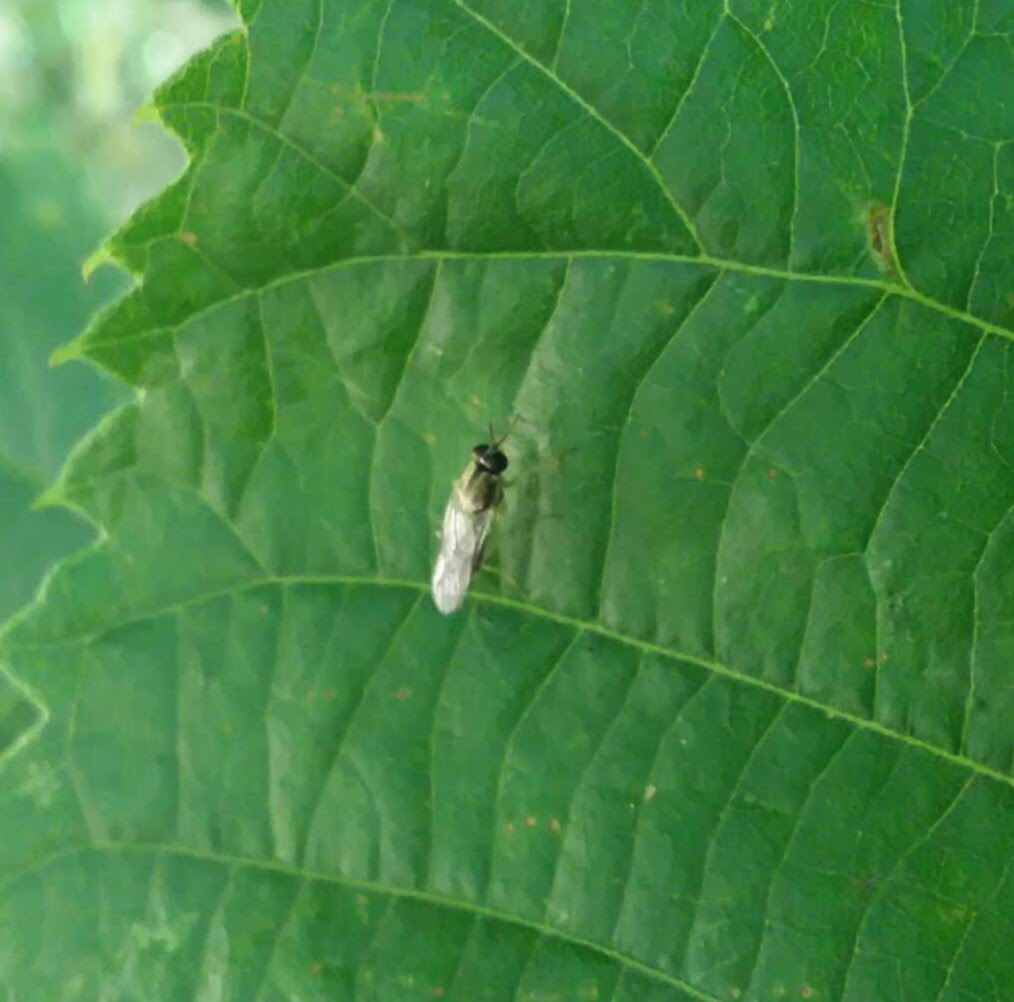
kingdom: Animalia
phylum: Arthropoda
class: Insecta
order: Diptera
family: Xylomyidae
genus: Solva
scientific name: Solva pallipes
